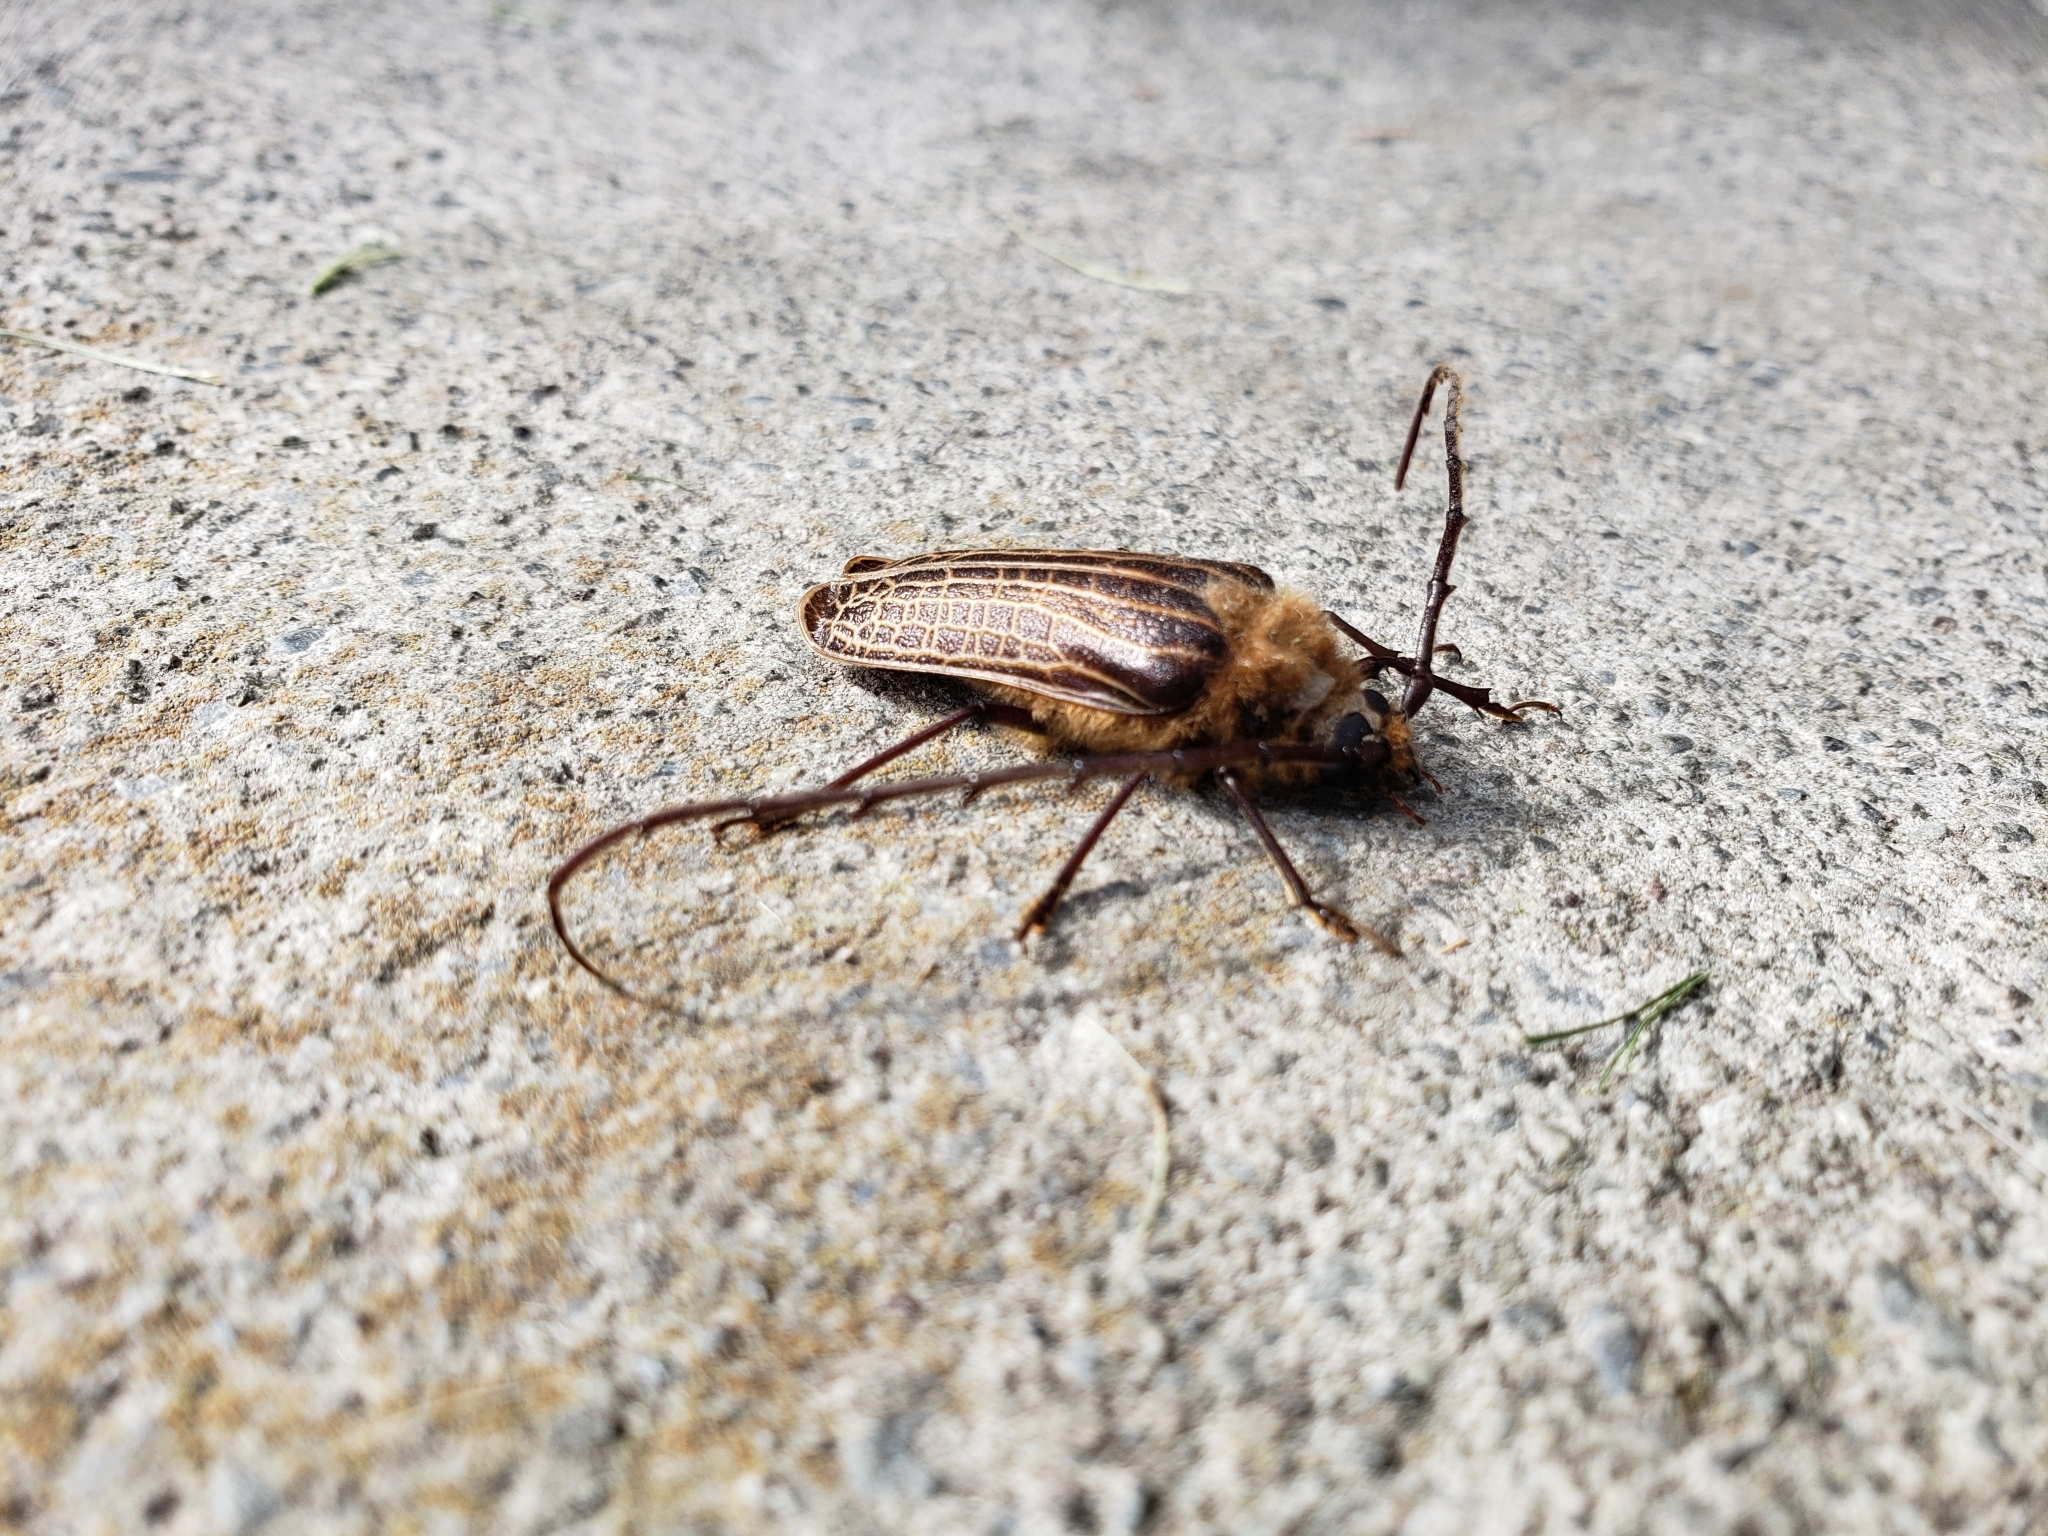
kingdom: Animalia
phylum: Arthropoda
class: Insecta
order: Coleoptera
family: Cerambycidae
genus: Prionoplus
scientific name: Prionoplus reticularis
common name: Huhu beetle
